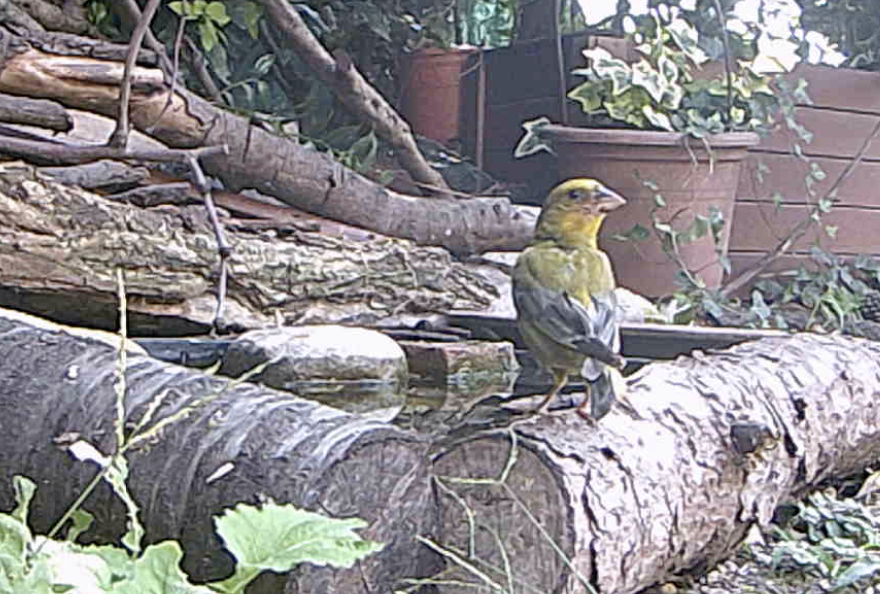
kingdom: Plantae
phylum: Tracheophyta
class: Liliopsida
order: Poales
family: Poaceae
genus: Chloris
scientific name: Chloris chloris
